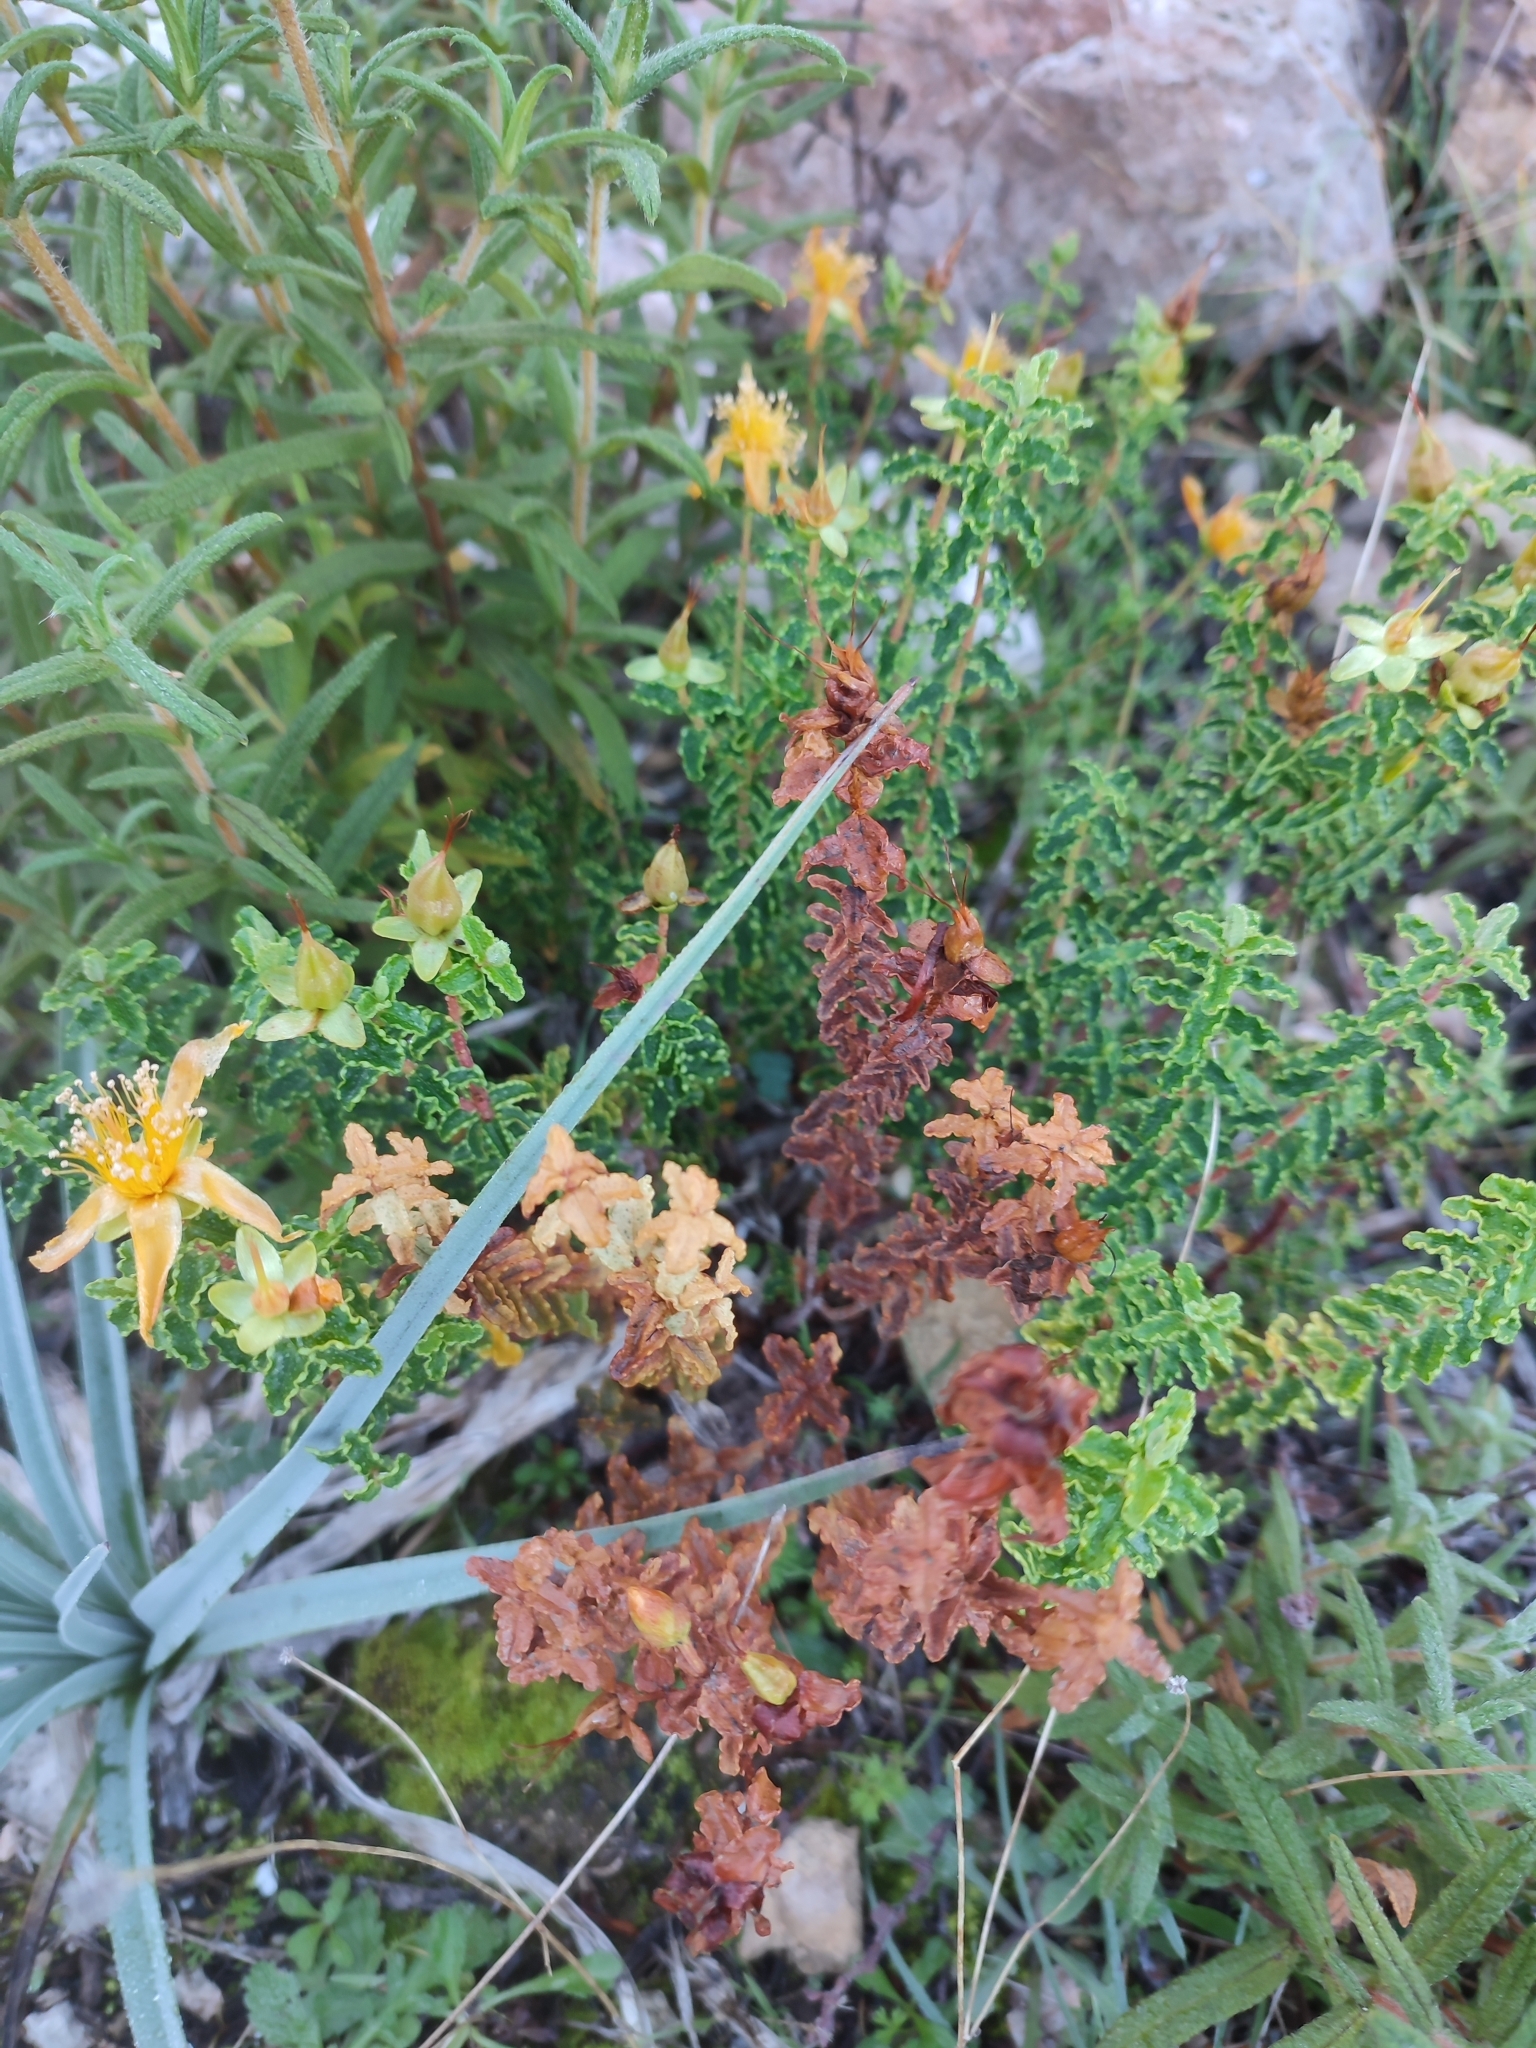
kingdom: Plantae
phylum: Tracheophyta
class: Magnoliopsida
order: Malpighiales
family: Hypericaceae
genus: Hypericum
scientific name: Hypericum balearicum
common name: Majorca st john's wort
